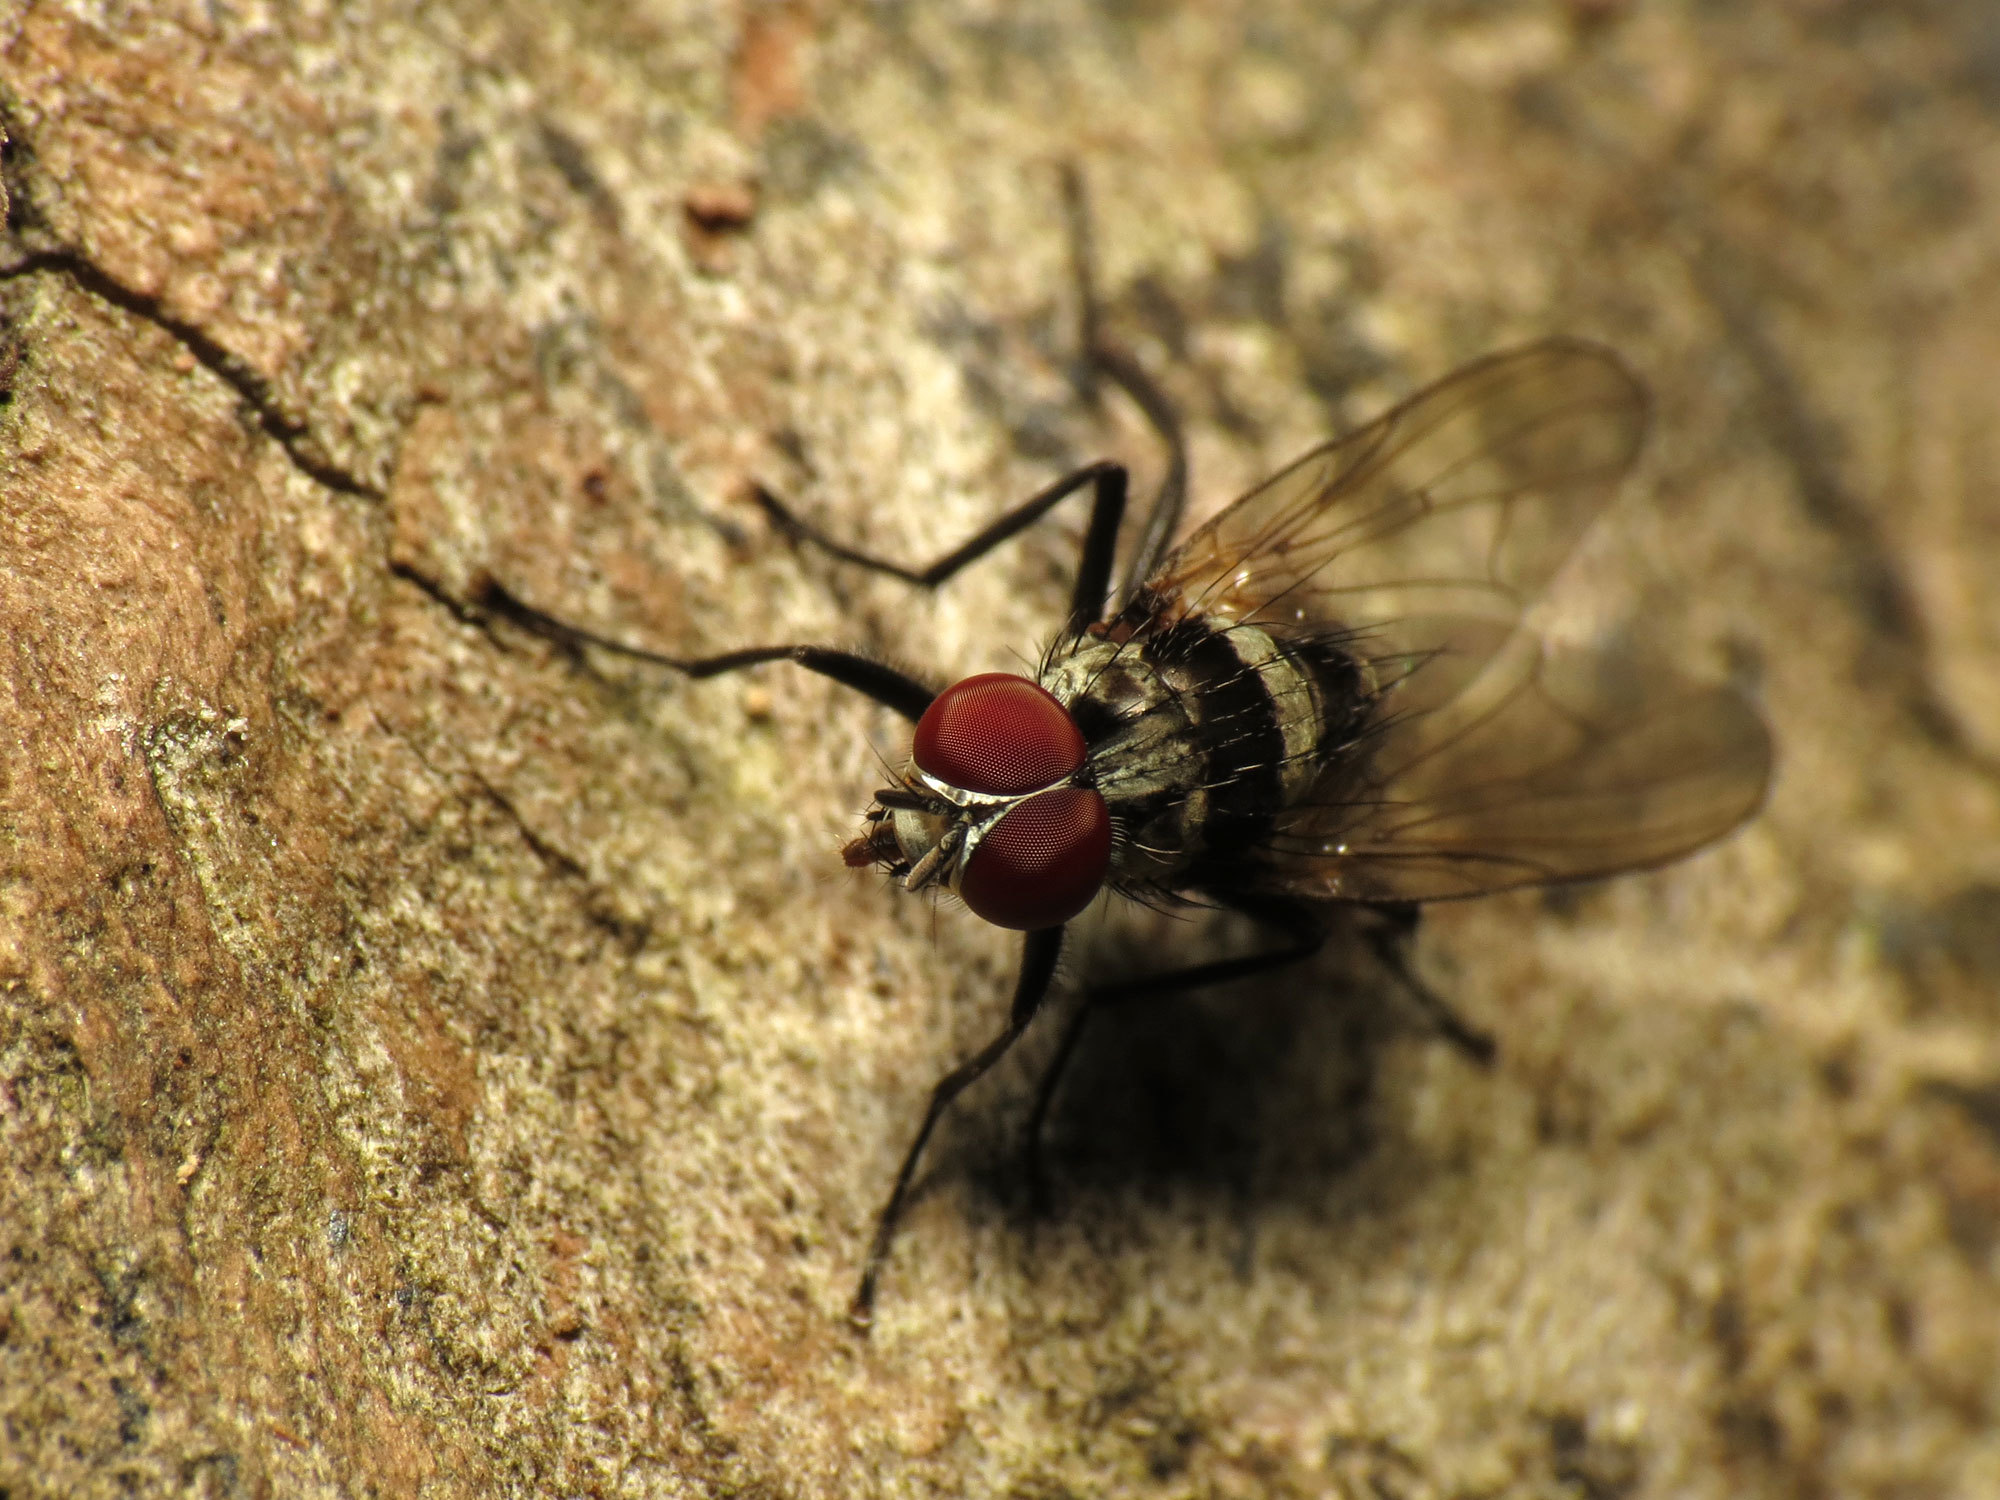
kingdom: Animalia
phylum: Arthropoda
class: Insecta
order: Diptera
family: Anthomyiidae
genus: Anthomyia
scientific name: Anthomyia oculifera
